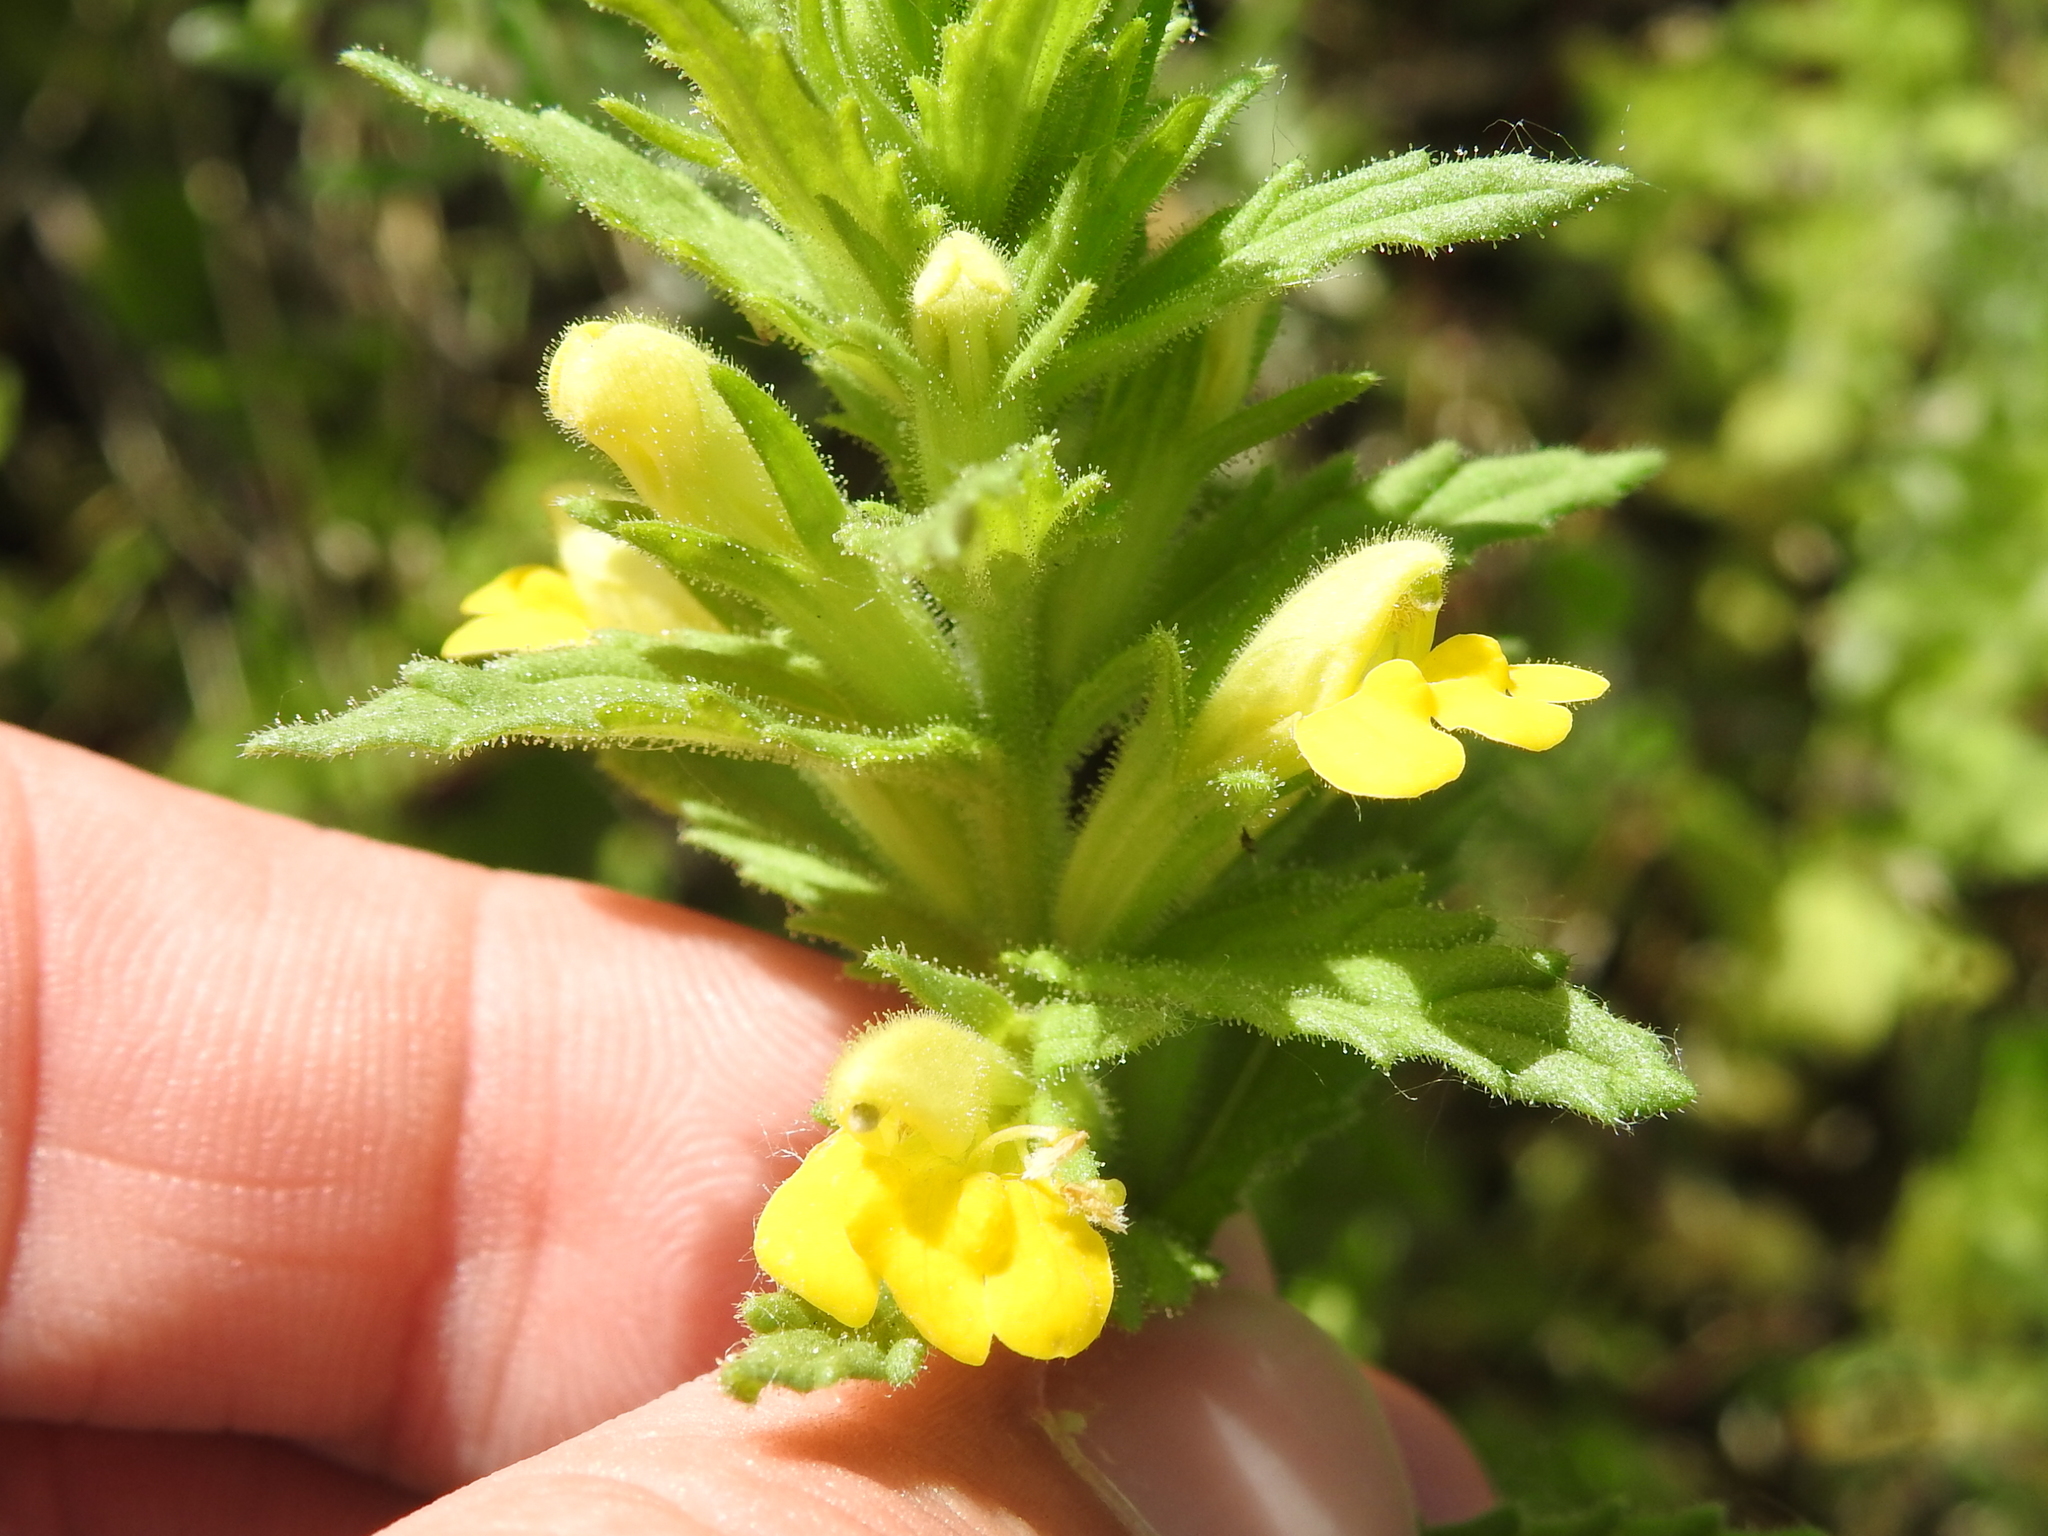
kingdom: Plantae
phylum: Tracheophyta
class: Magnoliopsida
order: Lamiales
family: Orobanchaceae
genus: Bellardia
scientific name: Bellardia viscosa
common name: Sticky parentucellia
